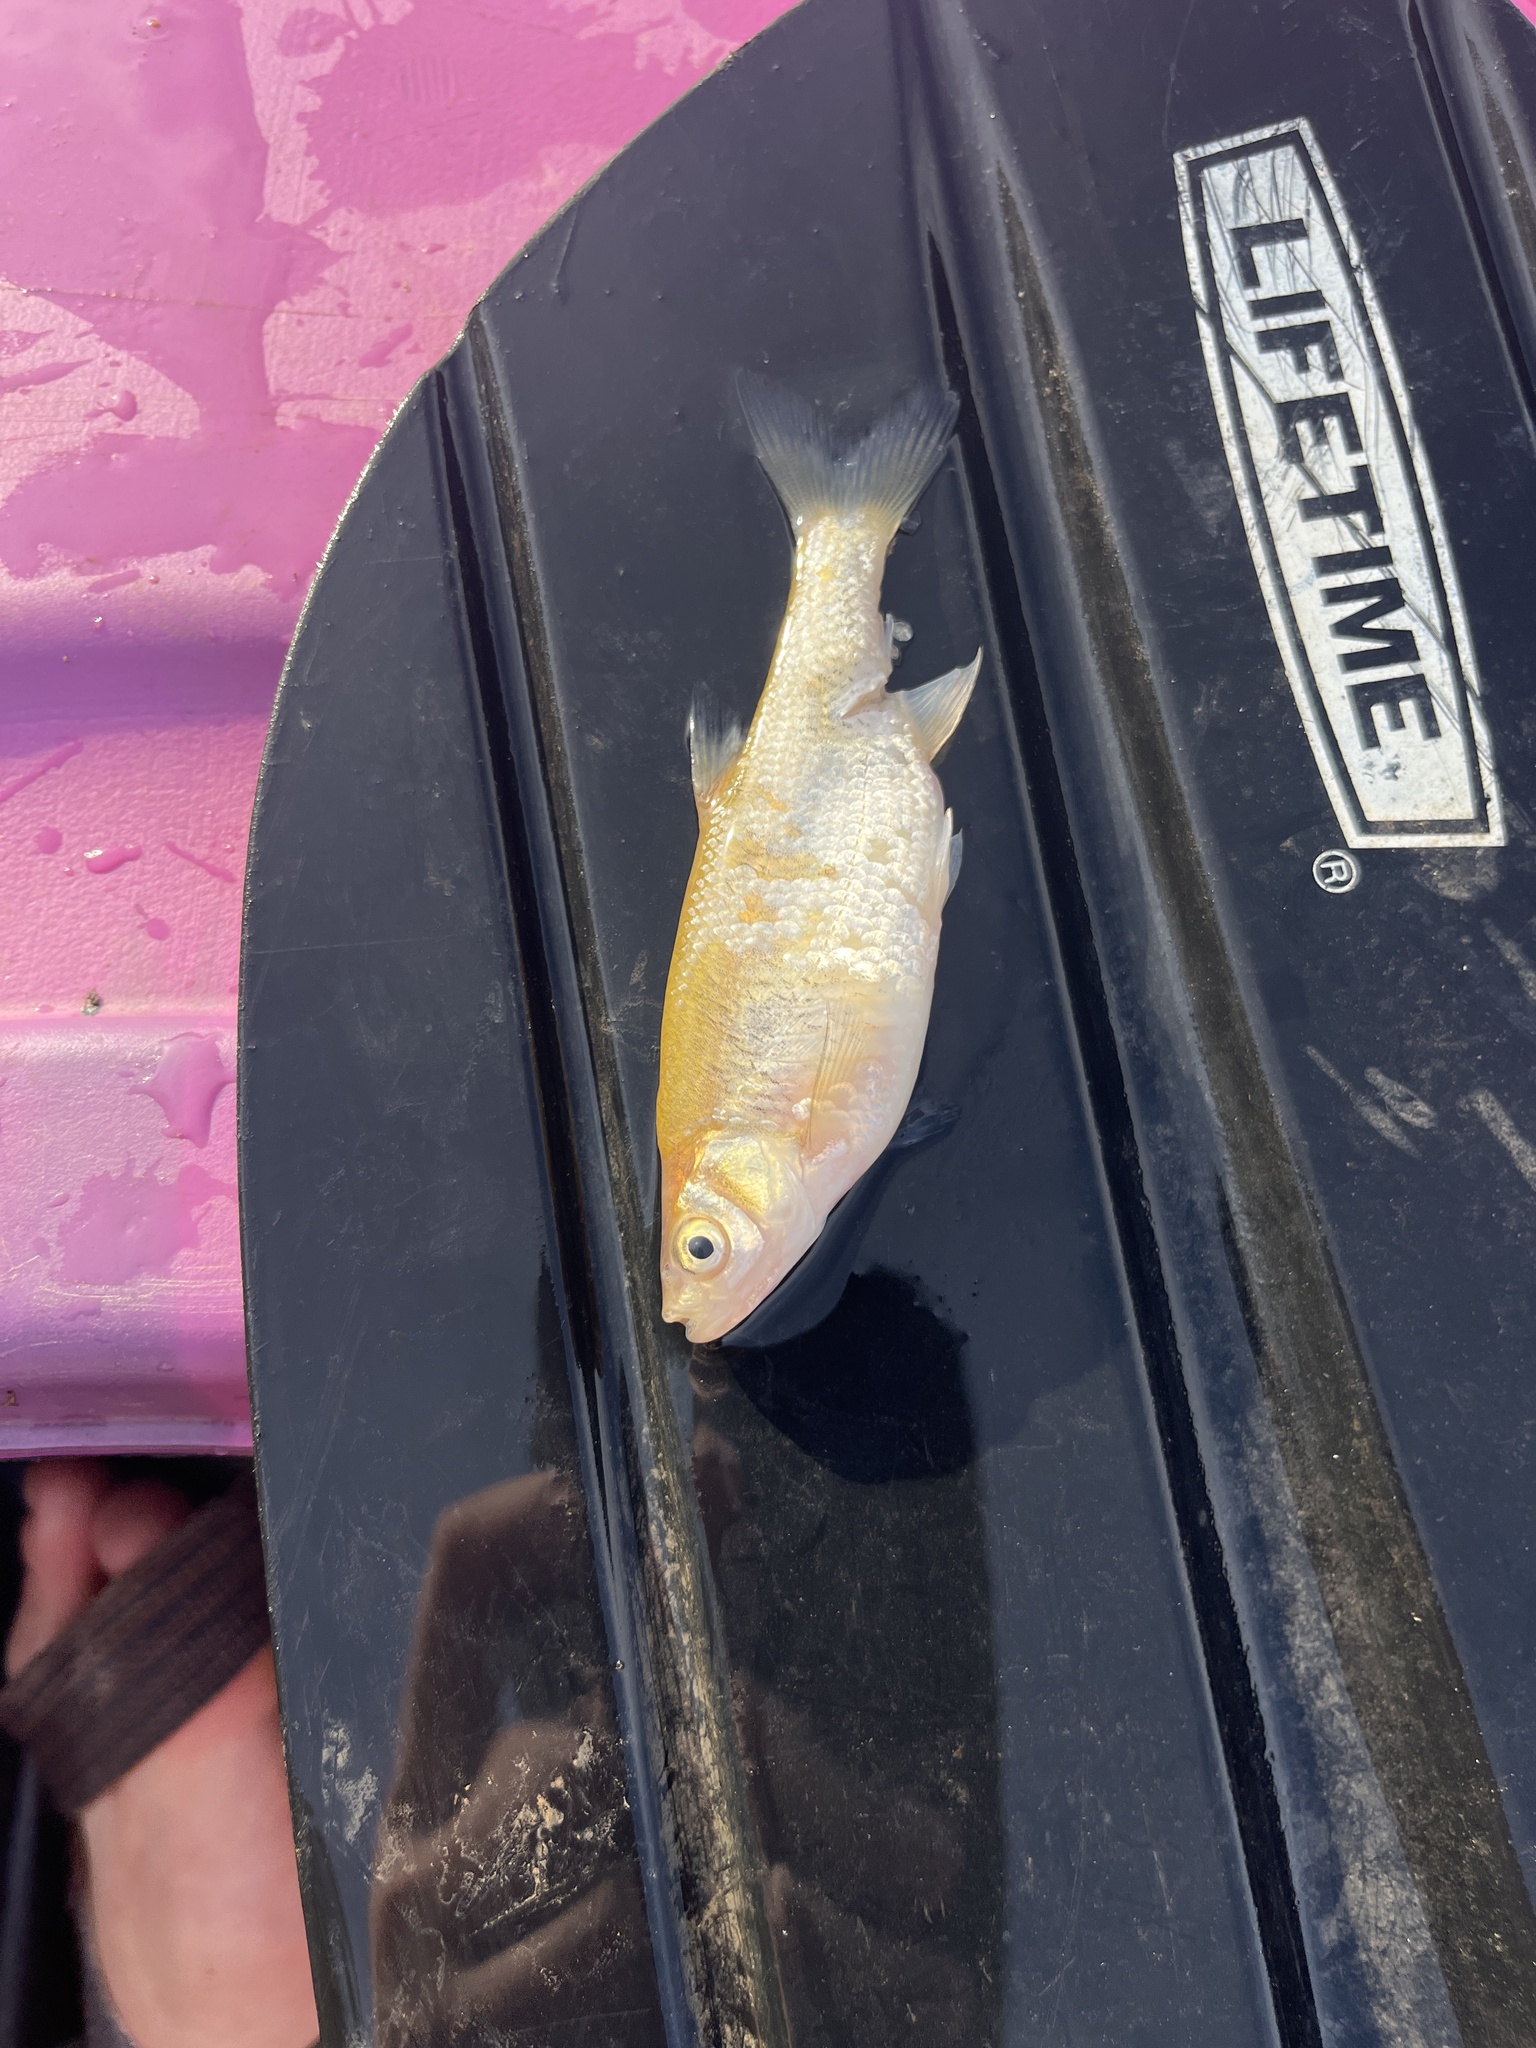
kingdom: Animalia
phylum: Chordata
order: Cypriniformes
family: Cyprinidae
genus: Notemigonus
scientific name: Notemigonus crysoleucas
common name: Golden shiner
